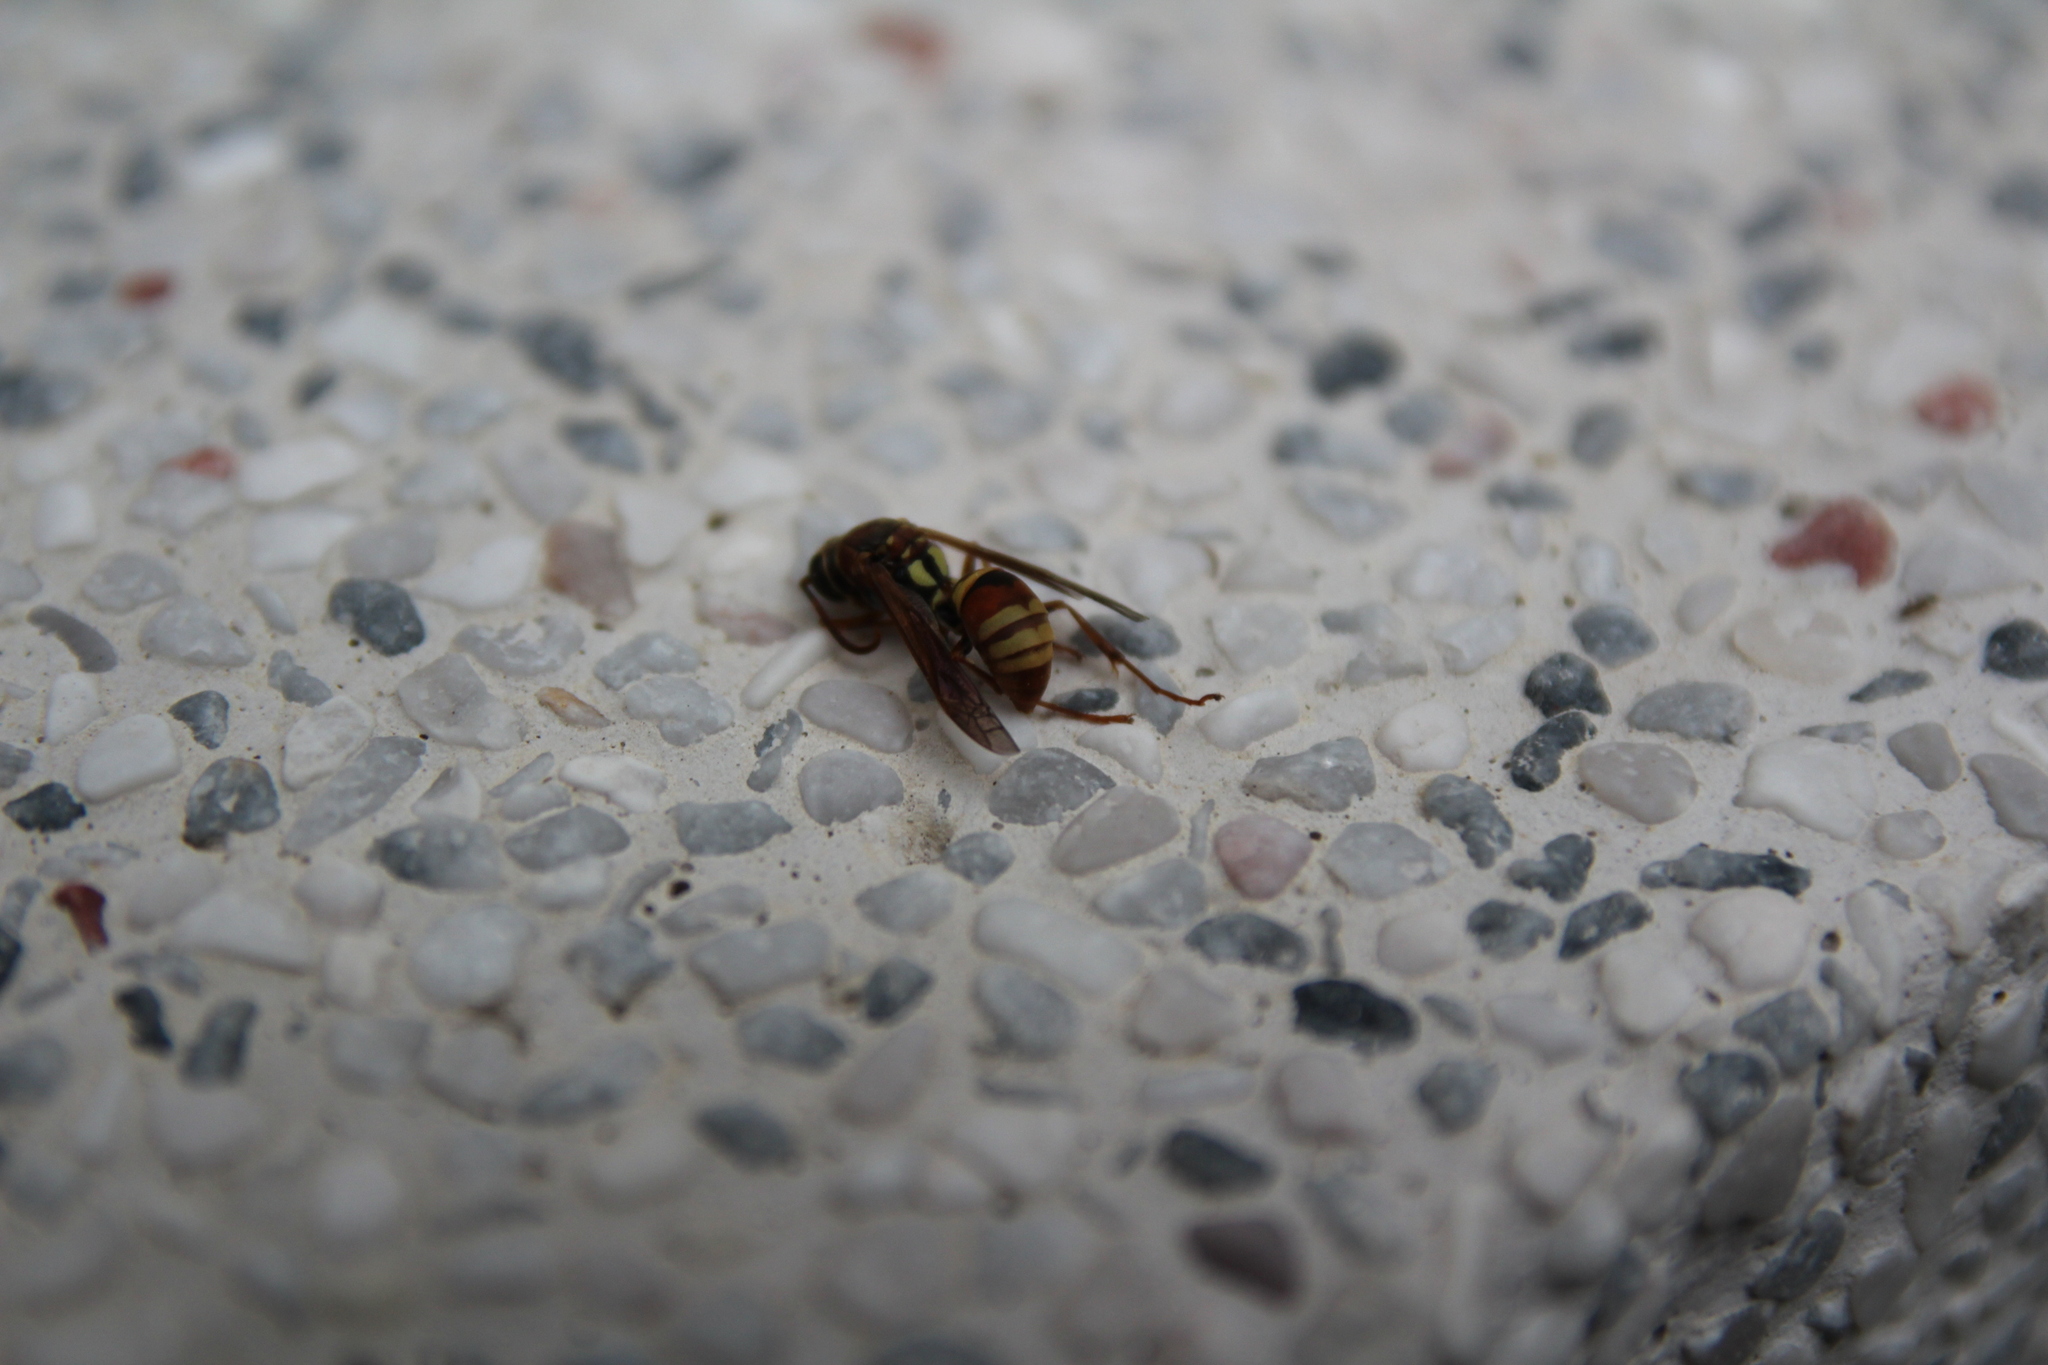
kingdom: Animalia
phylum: Arthropoda
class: Insecta
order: Hymenoptera
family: Eumenidae
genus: Polistes
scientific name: Polistes shirakii
